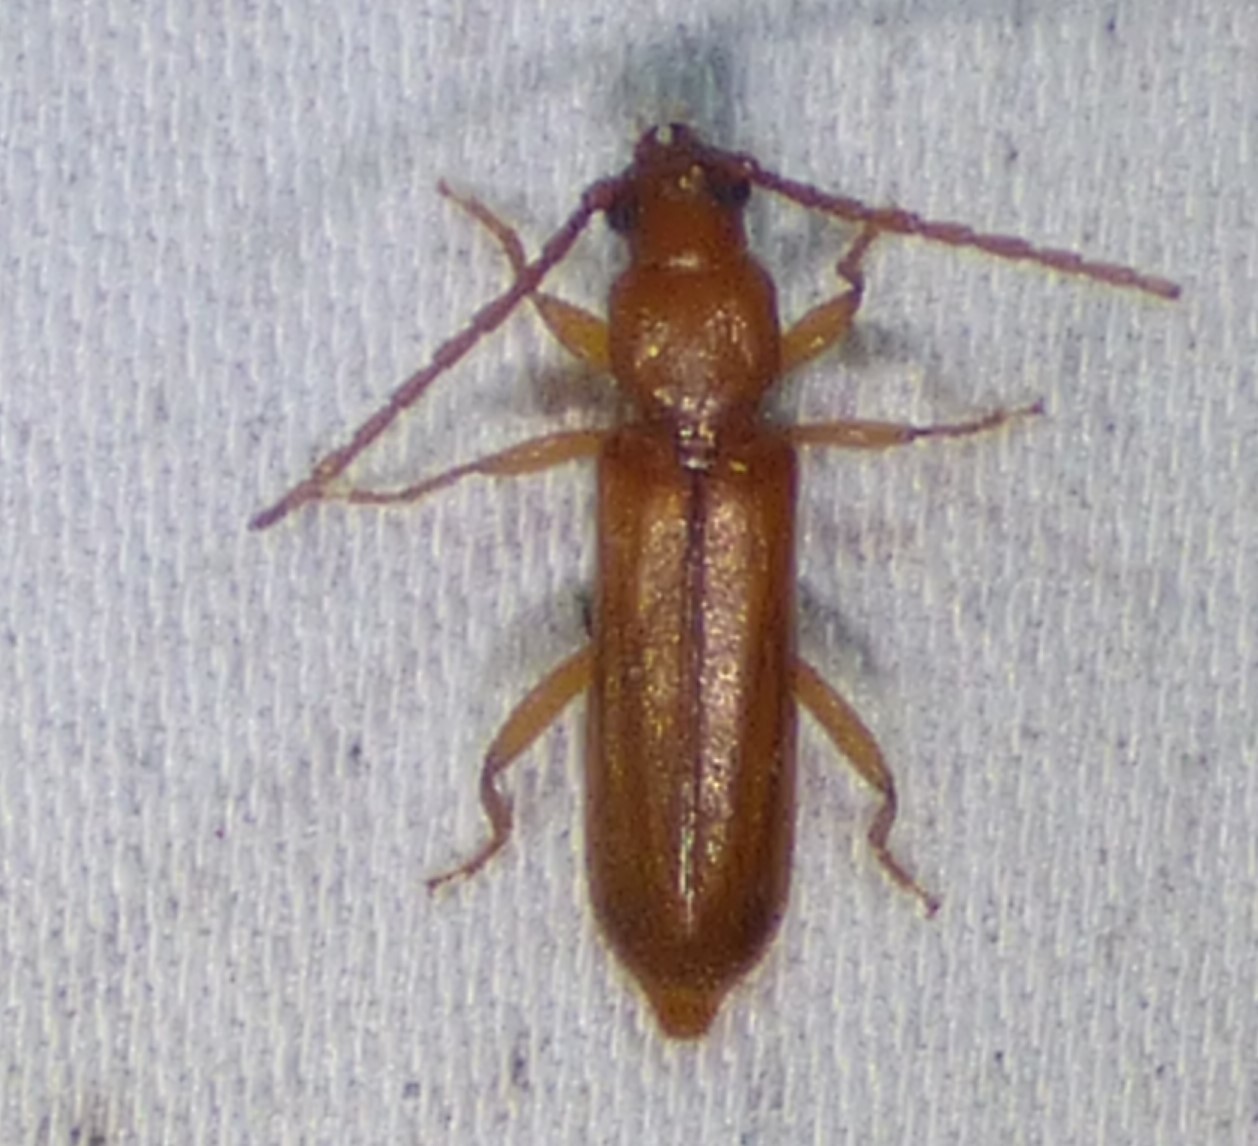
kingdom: Animalia
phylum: Arthropoda
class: Insecta
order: Coleoptera
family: Cerambycidae
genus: Smodicum
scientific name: Smodicum cucujiforme
